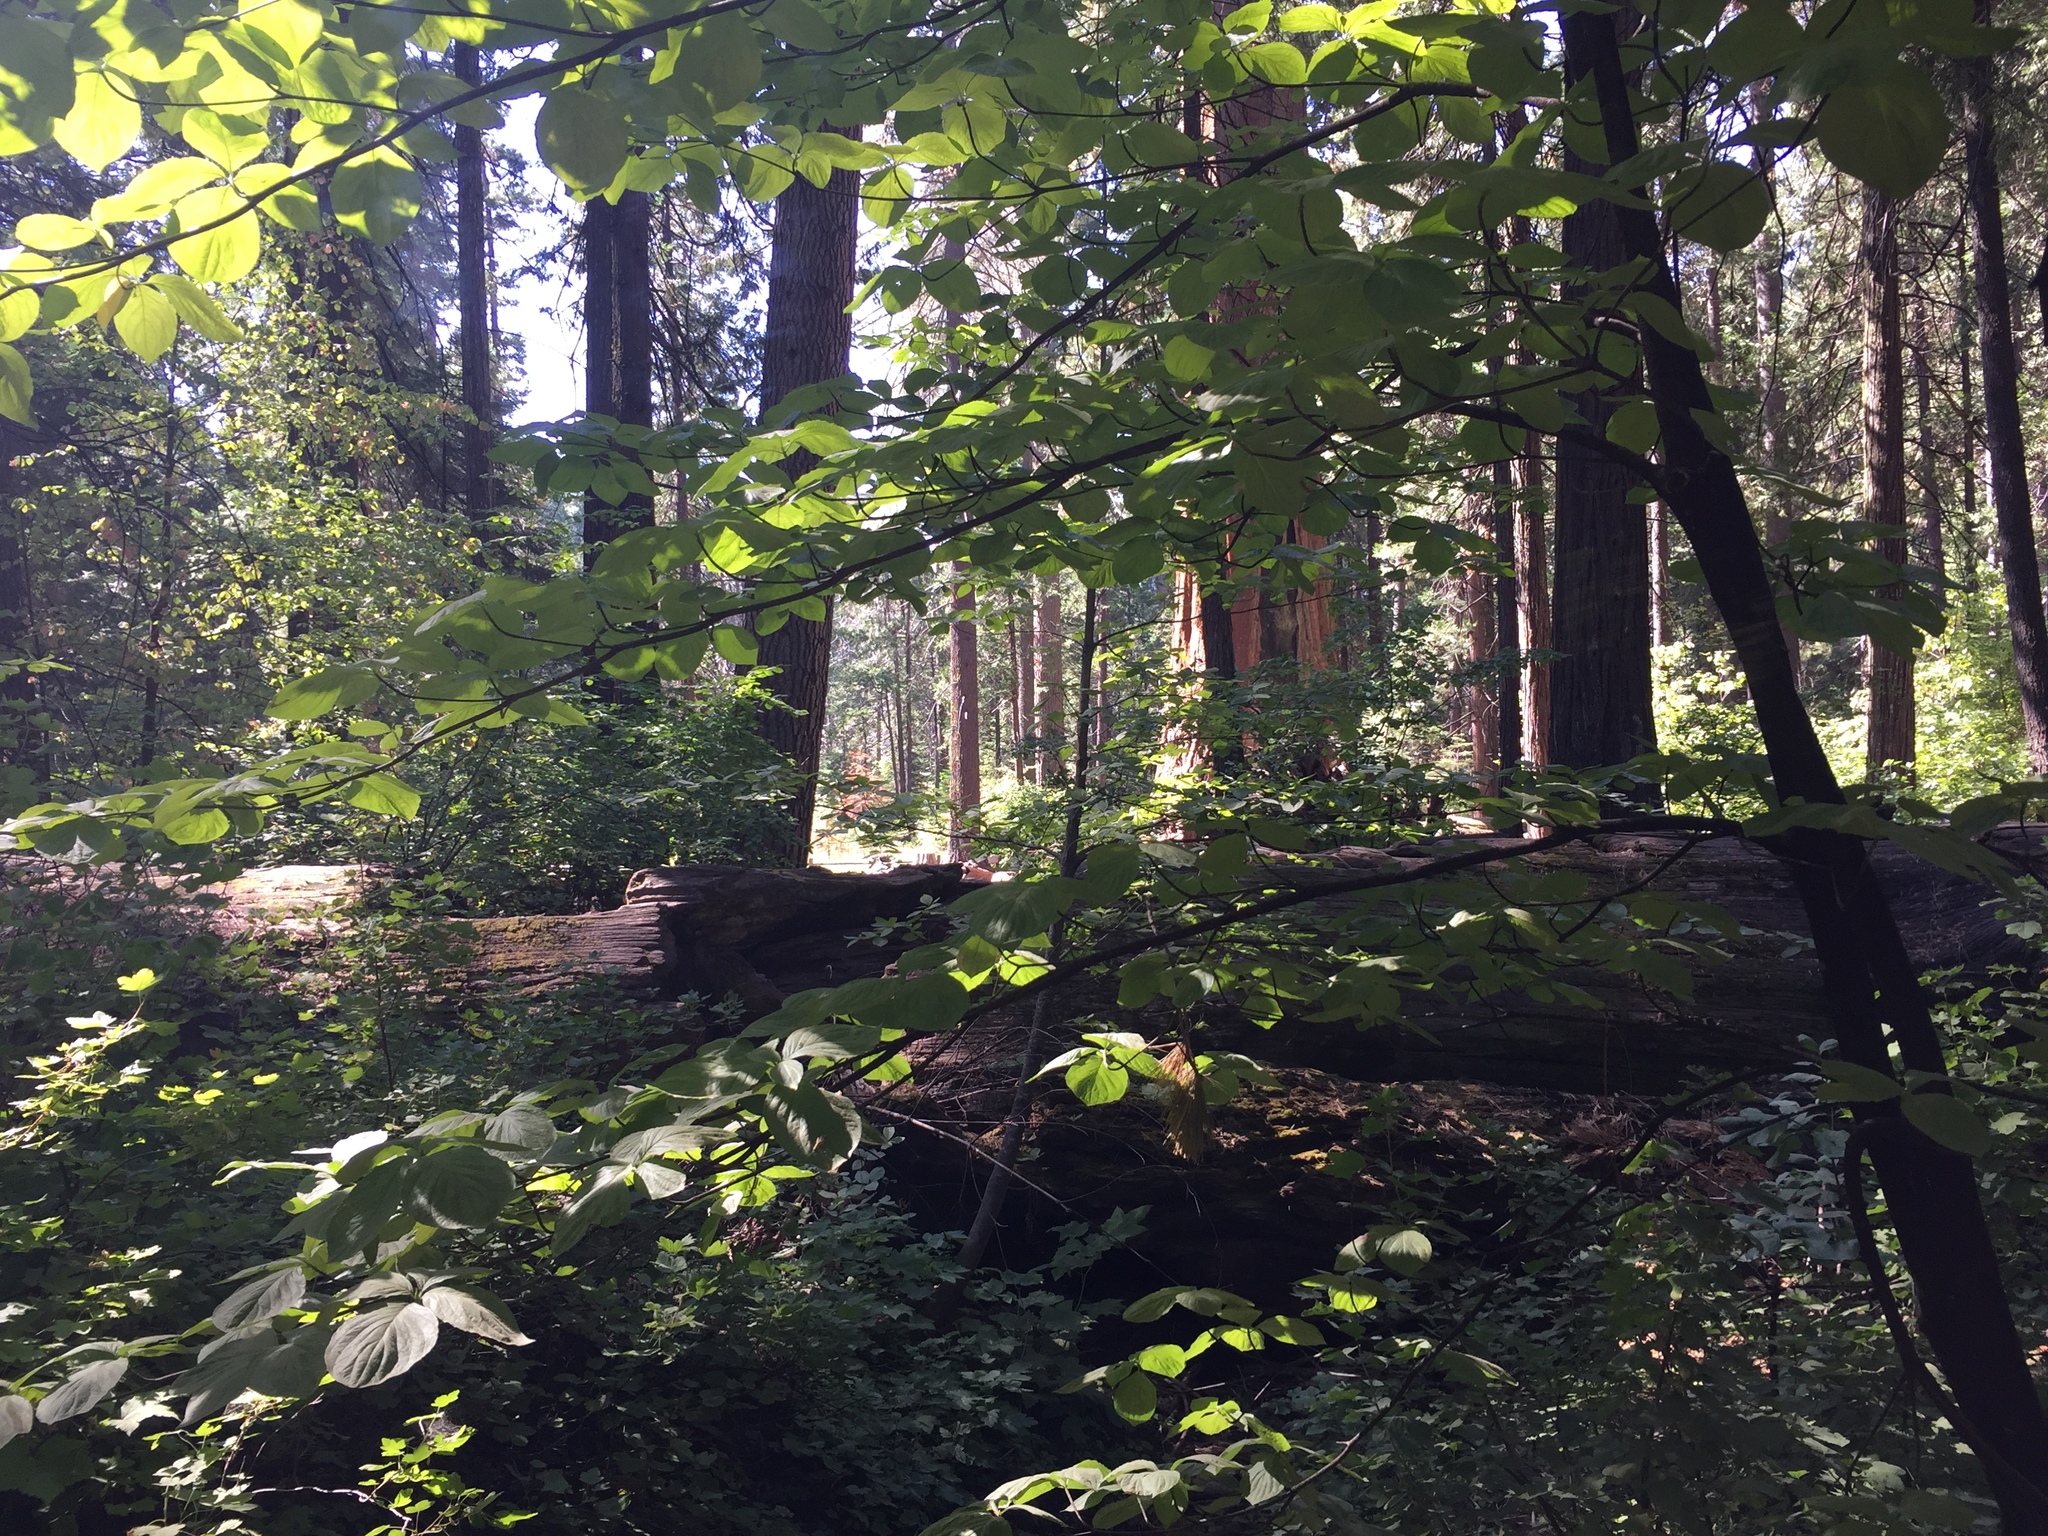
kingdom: Plantae
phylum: Tracheophyta
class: Magnoliopsida
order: Cornales
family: Cornaceae
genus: Cornus
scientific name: Cornus nuttallii
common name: Pacific dogwood
